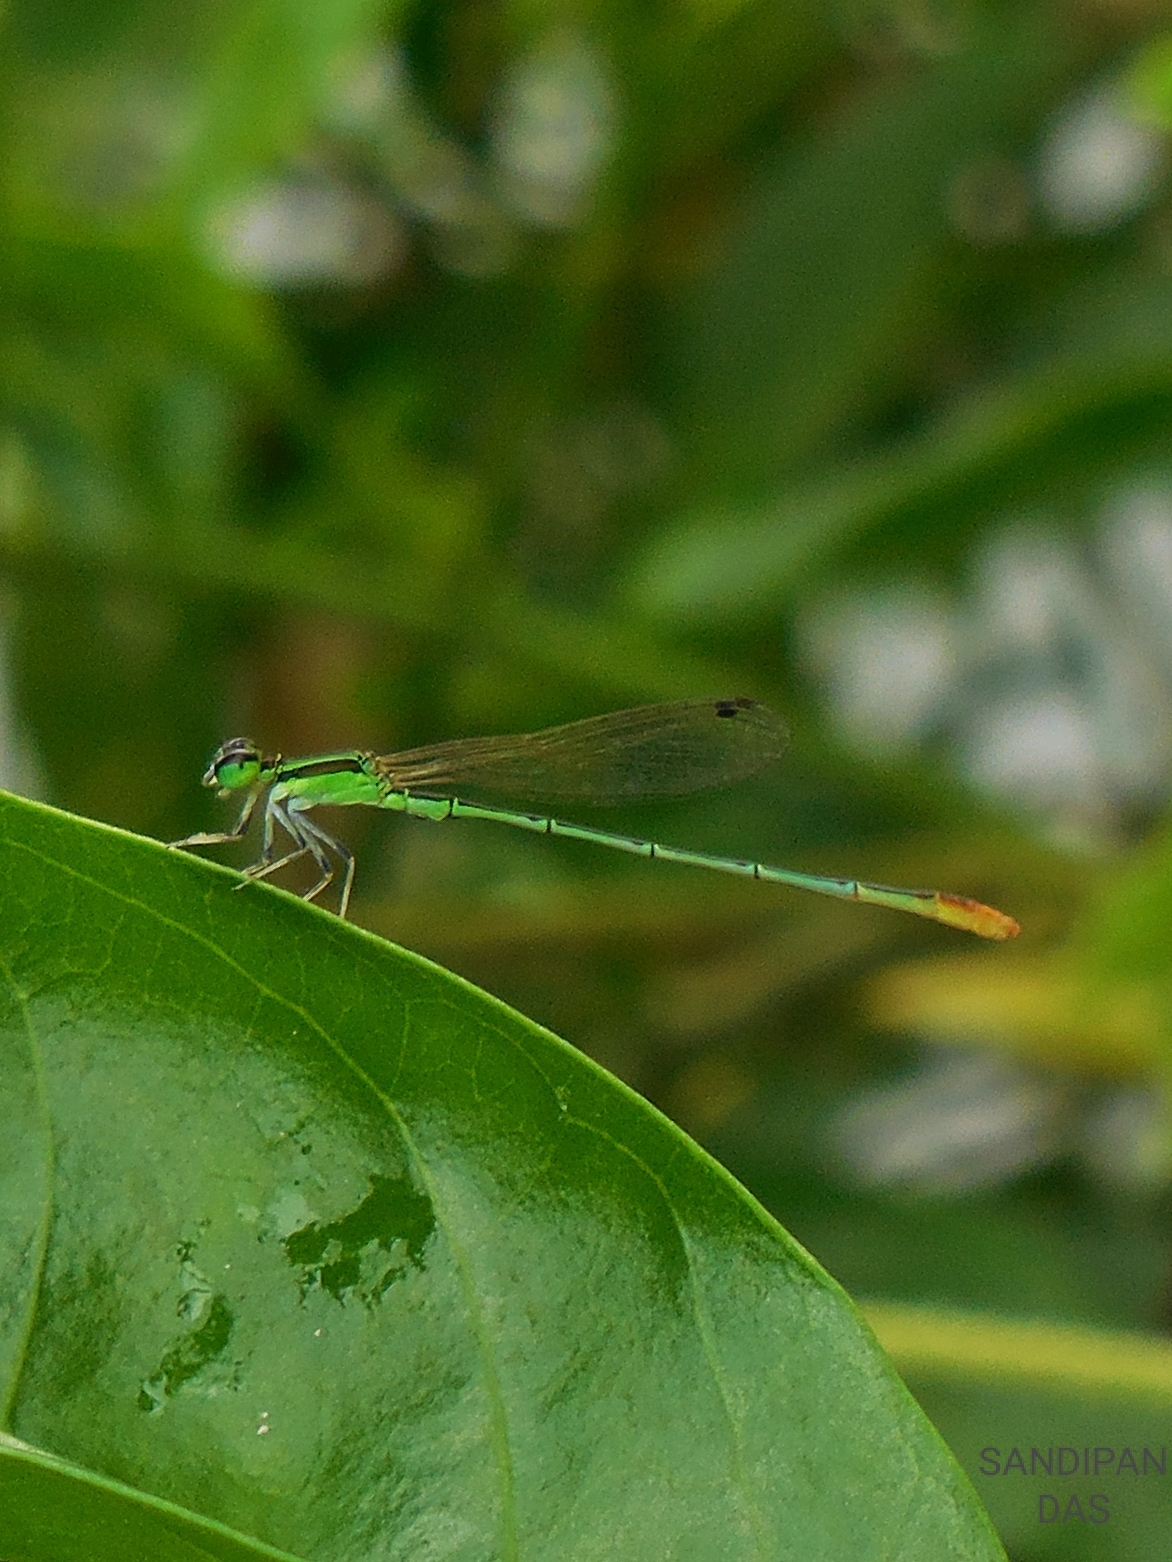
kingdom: Animalia
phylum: Arthropoda
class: Insecta
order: Odonata
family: Coenagrionidae
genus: Agriocnemis
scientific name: Agriocnemis pygmaea
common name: Pygmy wisp
